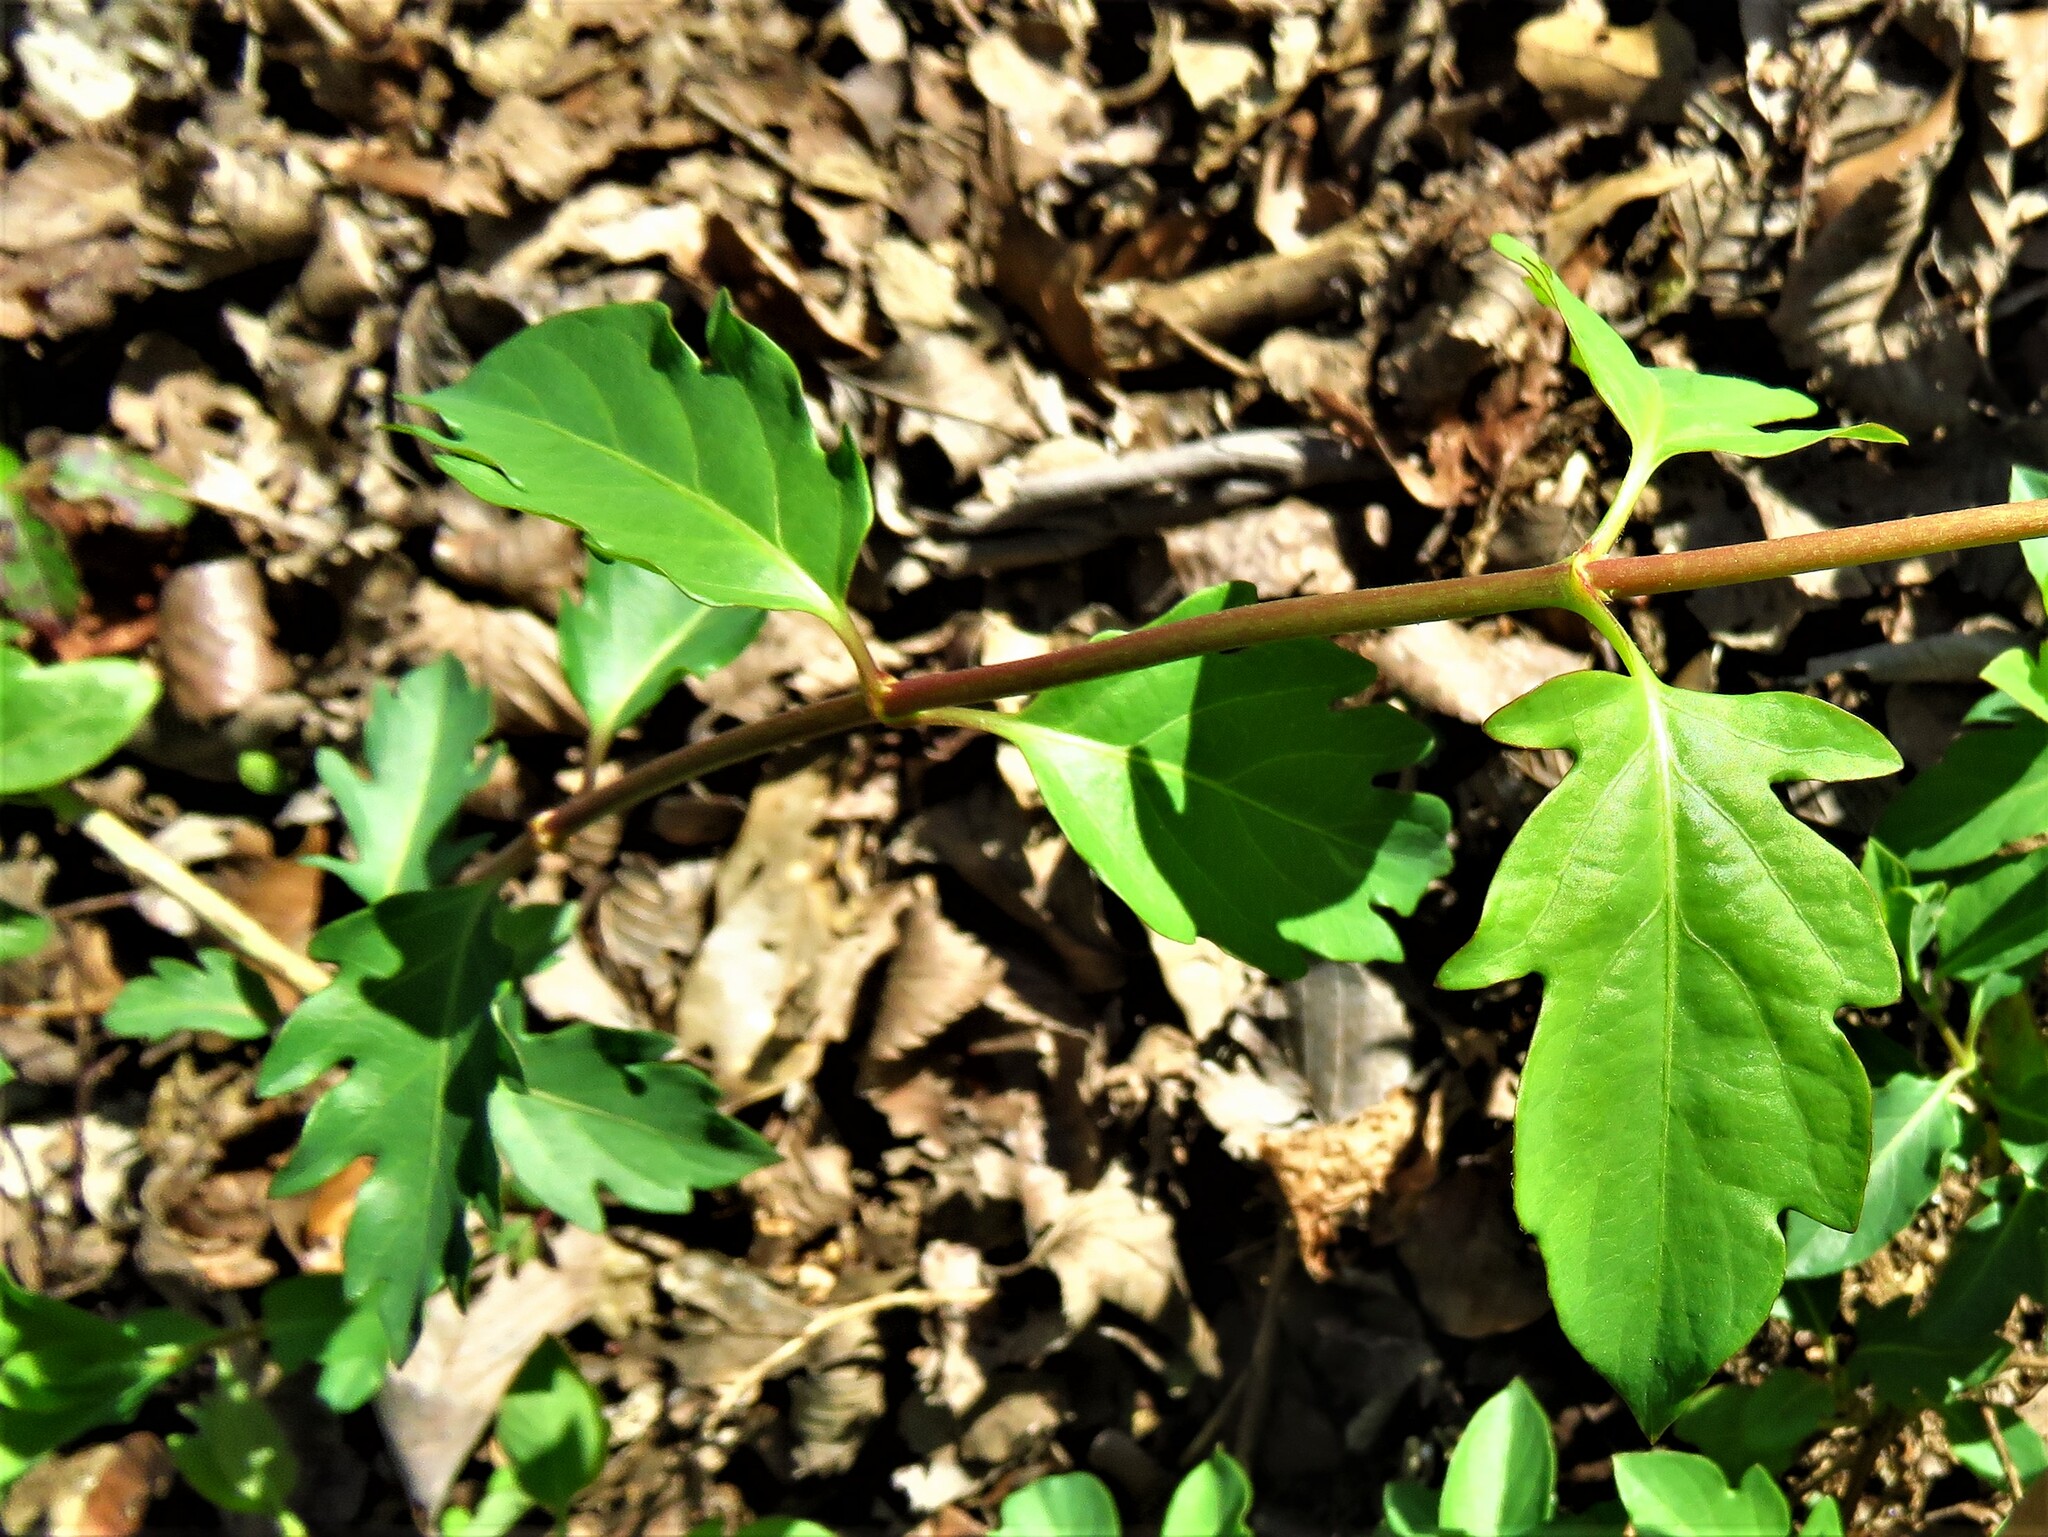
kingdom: Plantae
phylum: Tracheophyta
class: Magnoliopsida
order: Dipsacales
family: Caprifoliaceae
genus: Lonicera
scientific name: Lonicera japonica
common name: Japanese honeysuckle
